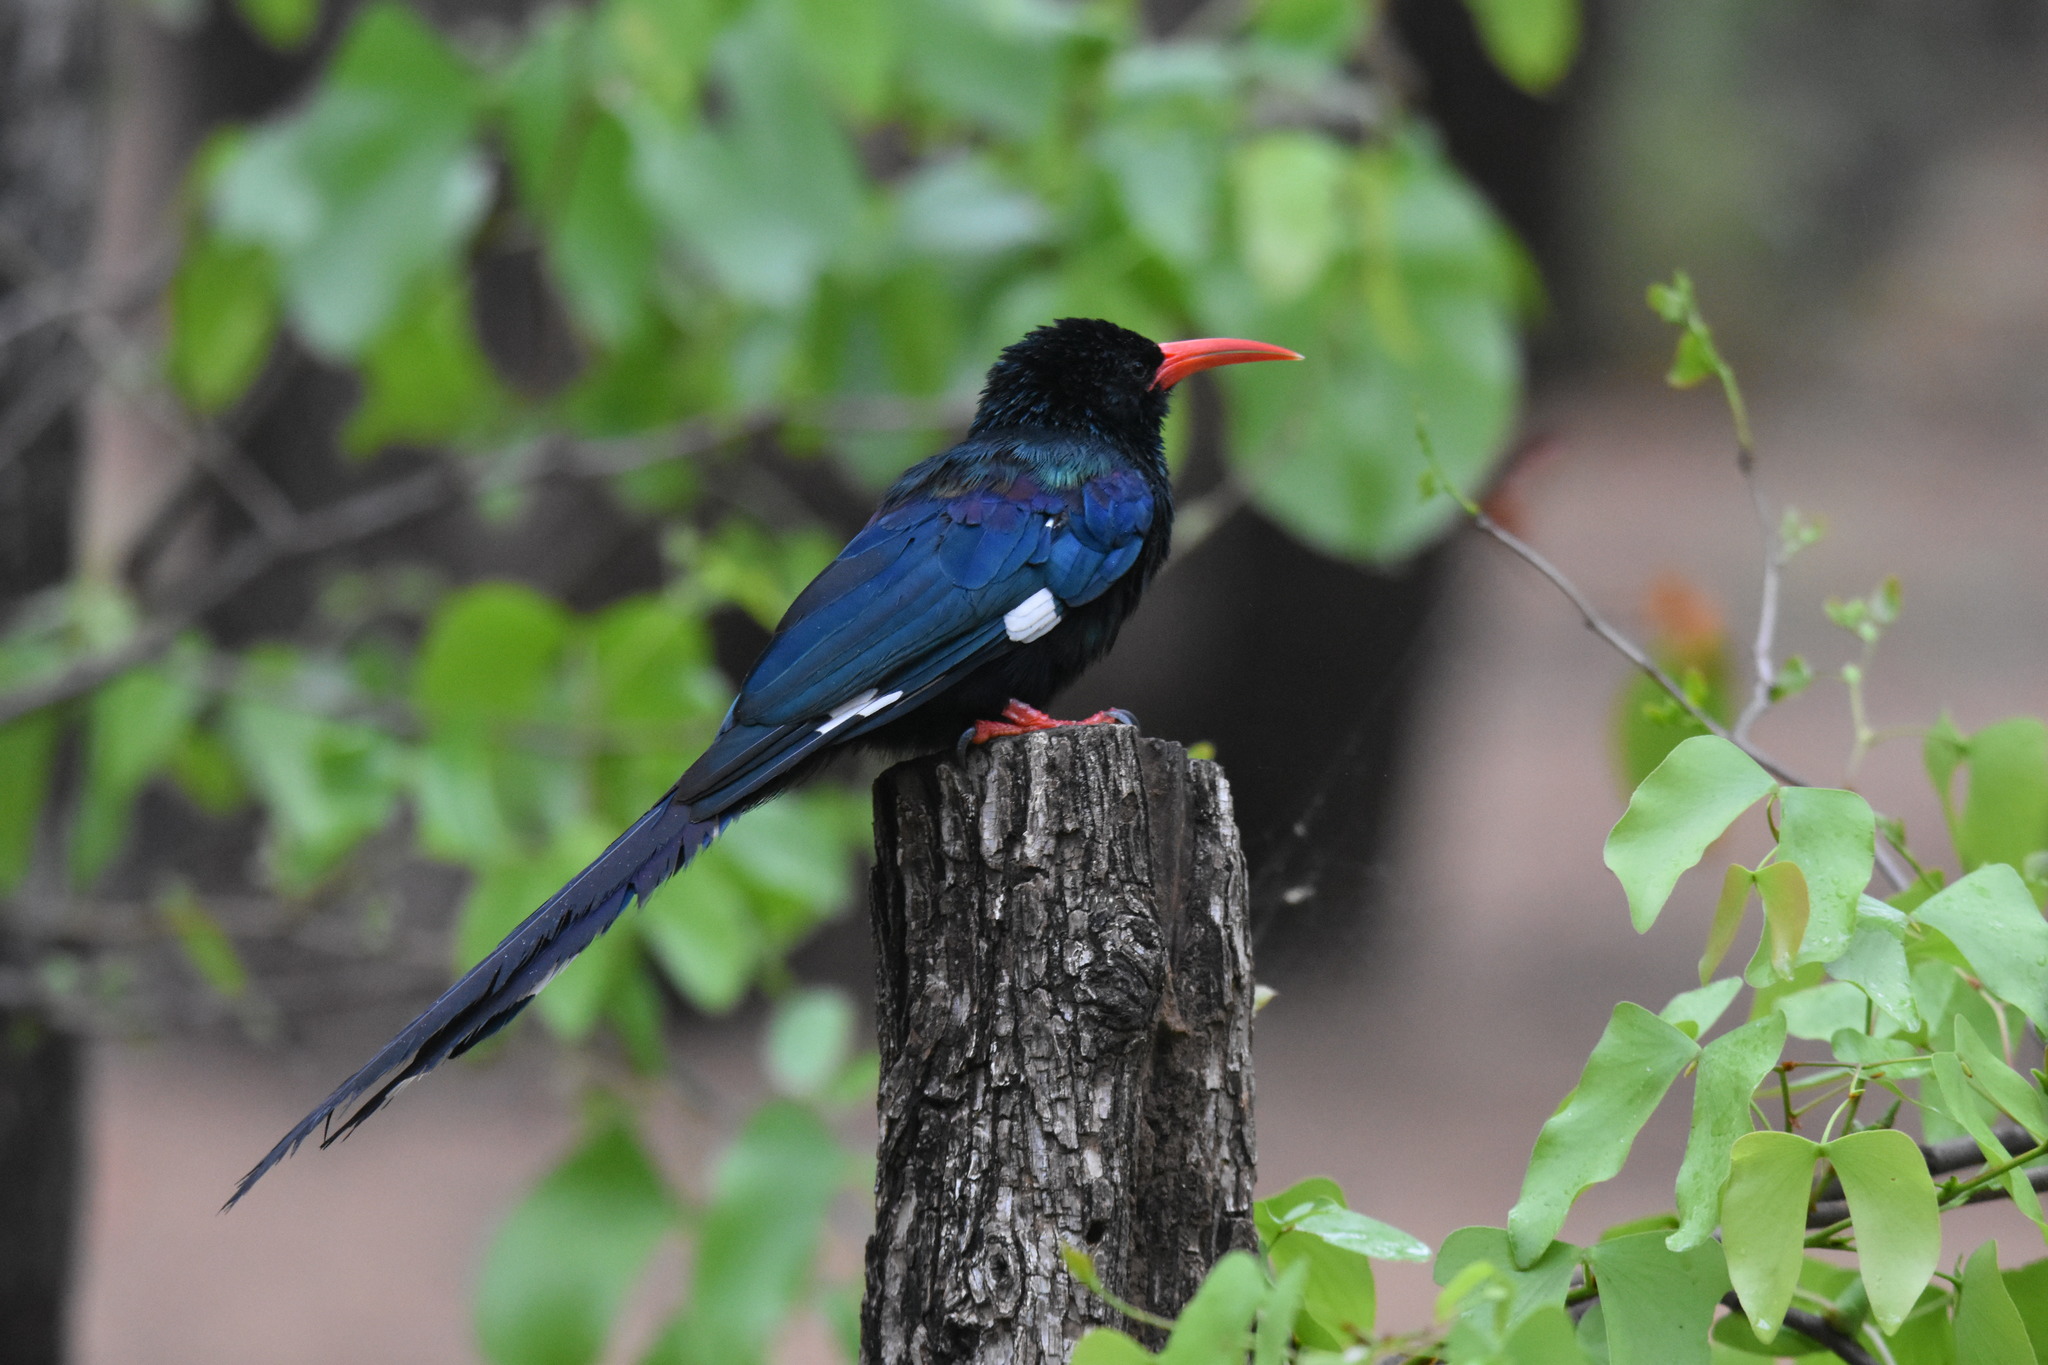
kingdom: Animalia
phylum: Chordata
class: Aves
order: Bucerotiformes
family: Phoeniculidae
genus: Phoeniculus
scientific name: Phoeniculus purpureus
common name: Green woodhoopoe
